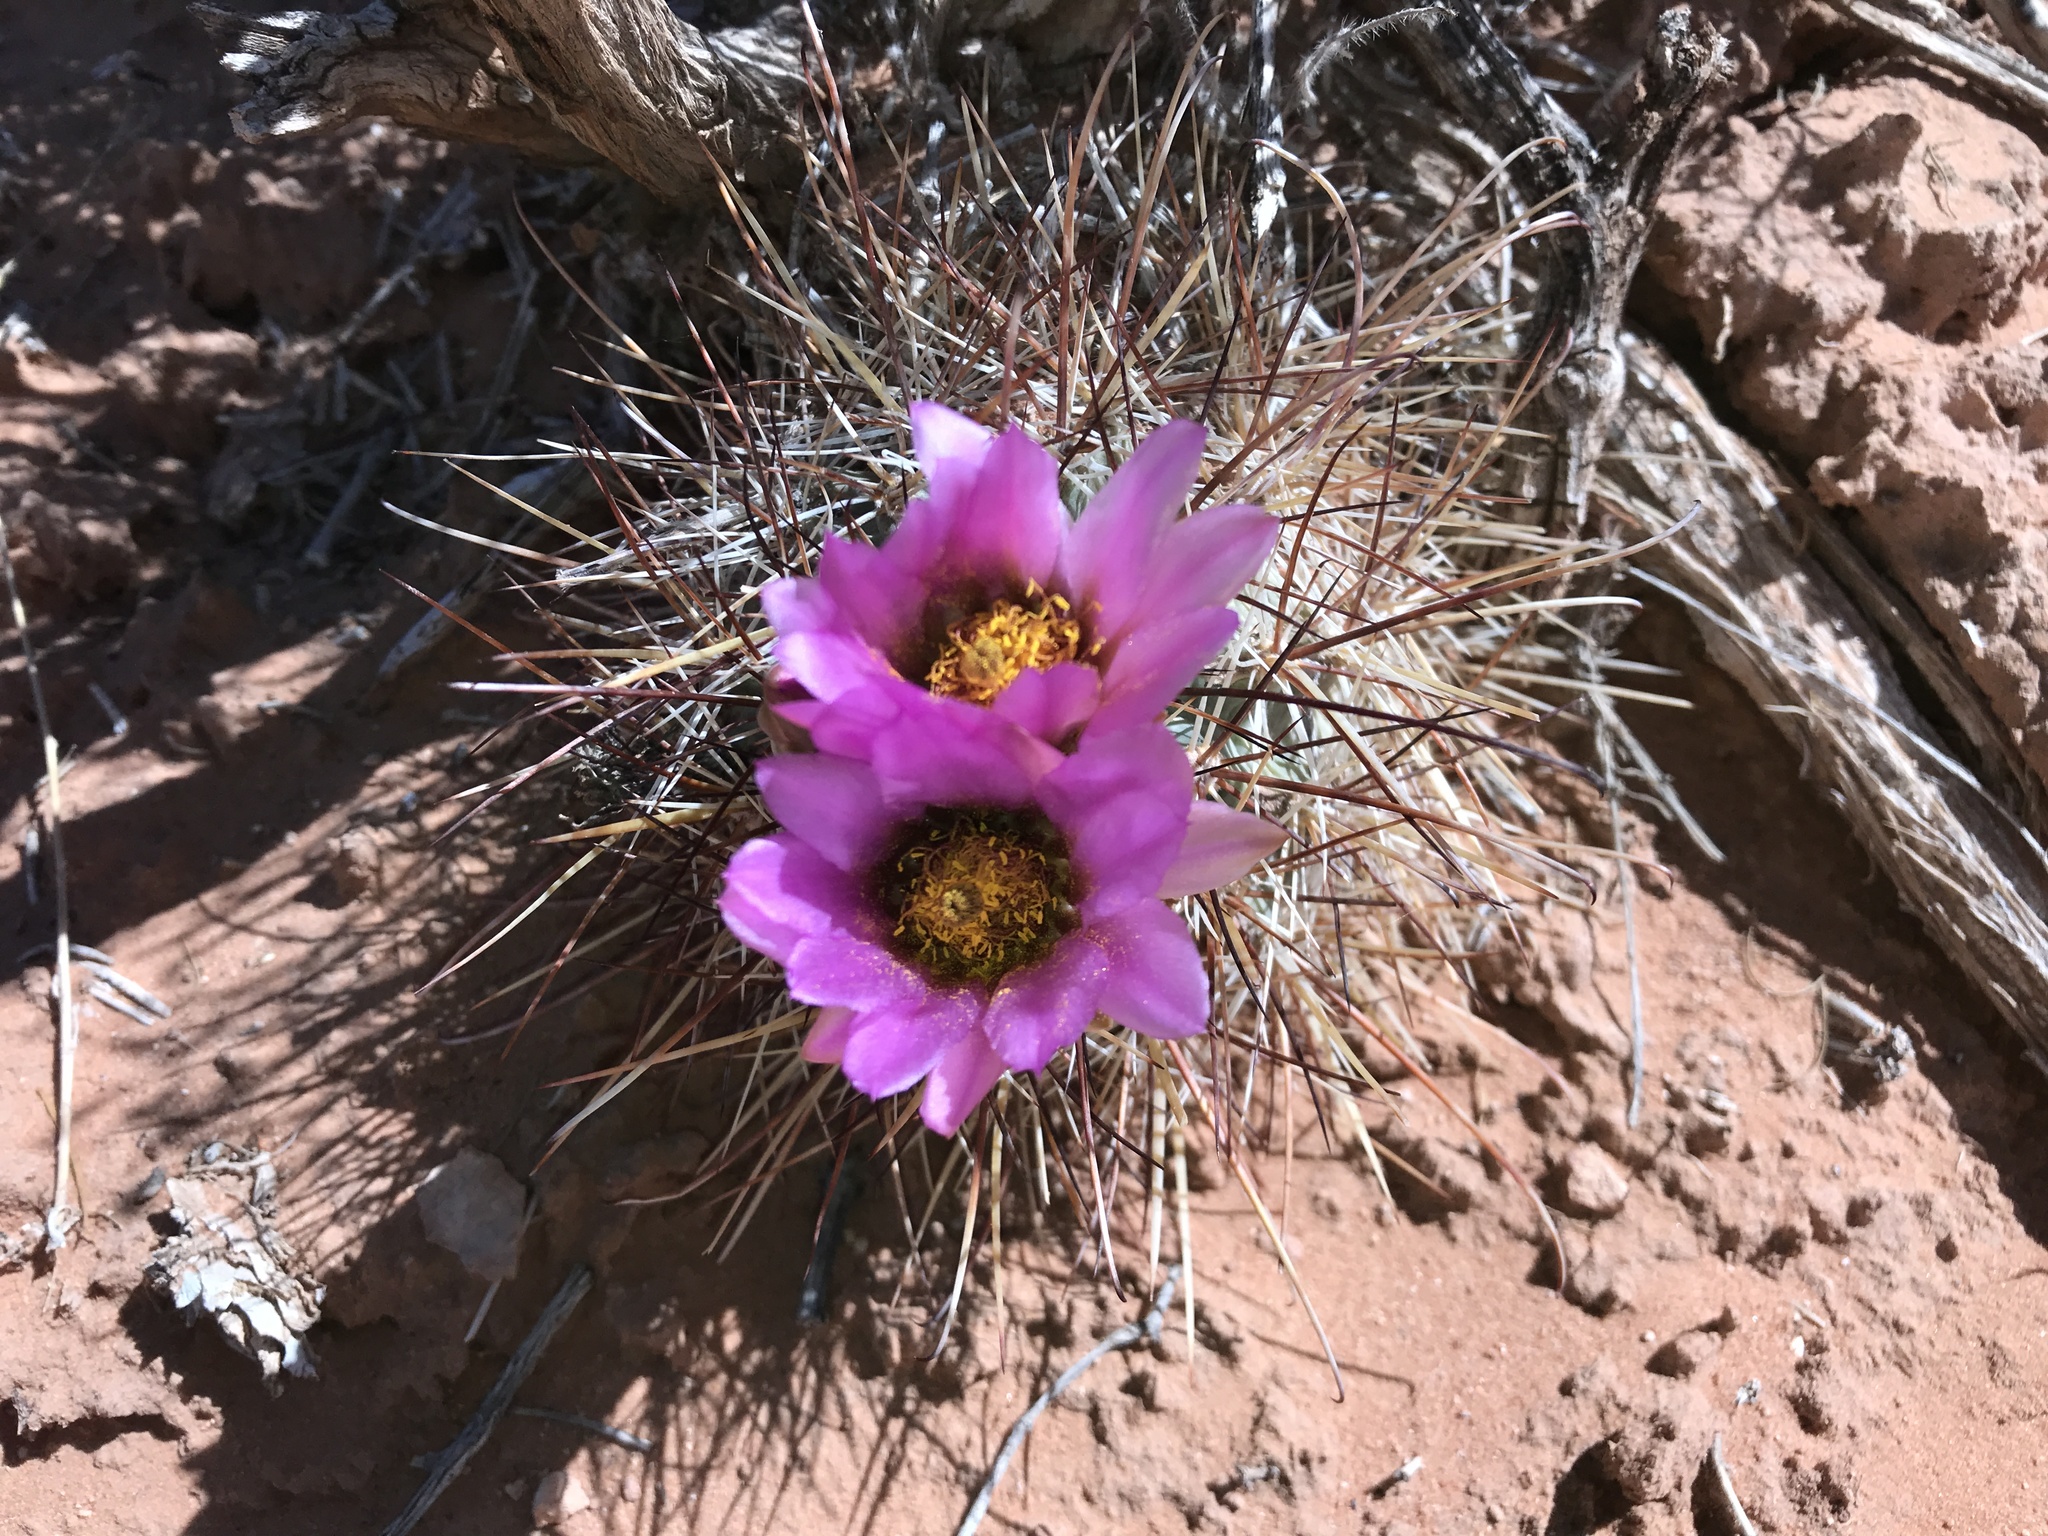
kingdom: Plantae
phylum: Tracheophyta
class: Magnoliopsida
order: Caryophyllales
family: Cactaceae
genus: Sclerocactus
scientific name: Sclerocactus parviflorus
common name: Small-flower fishhook cactus
